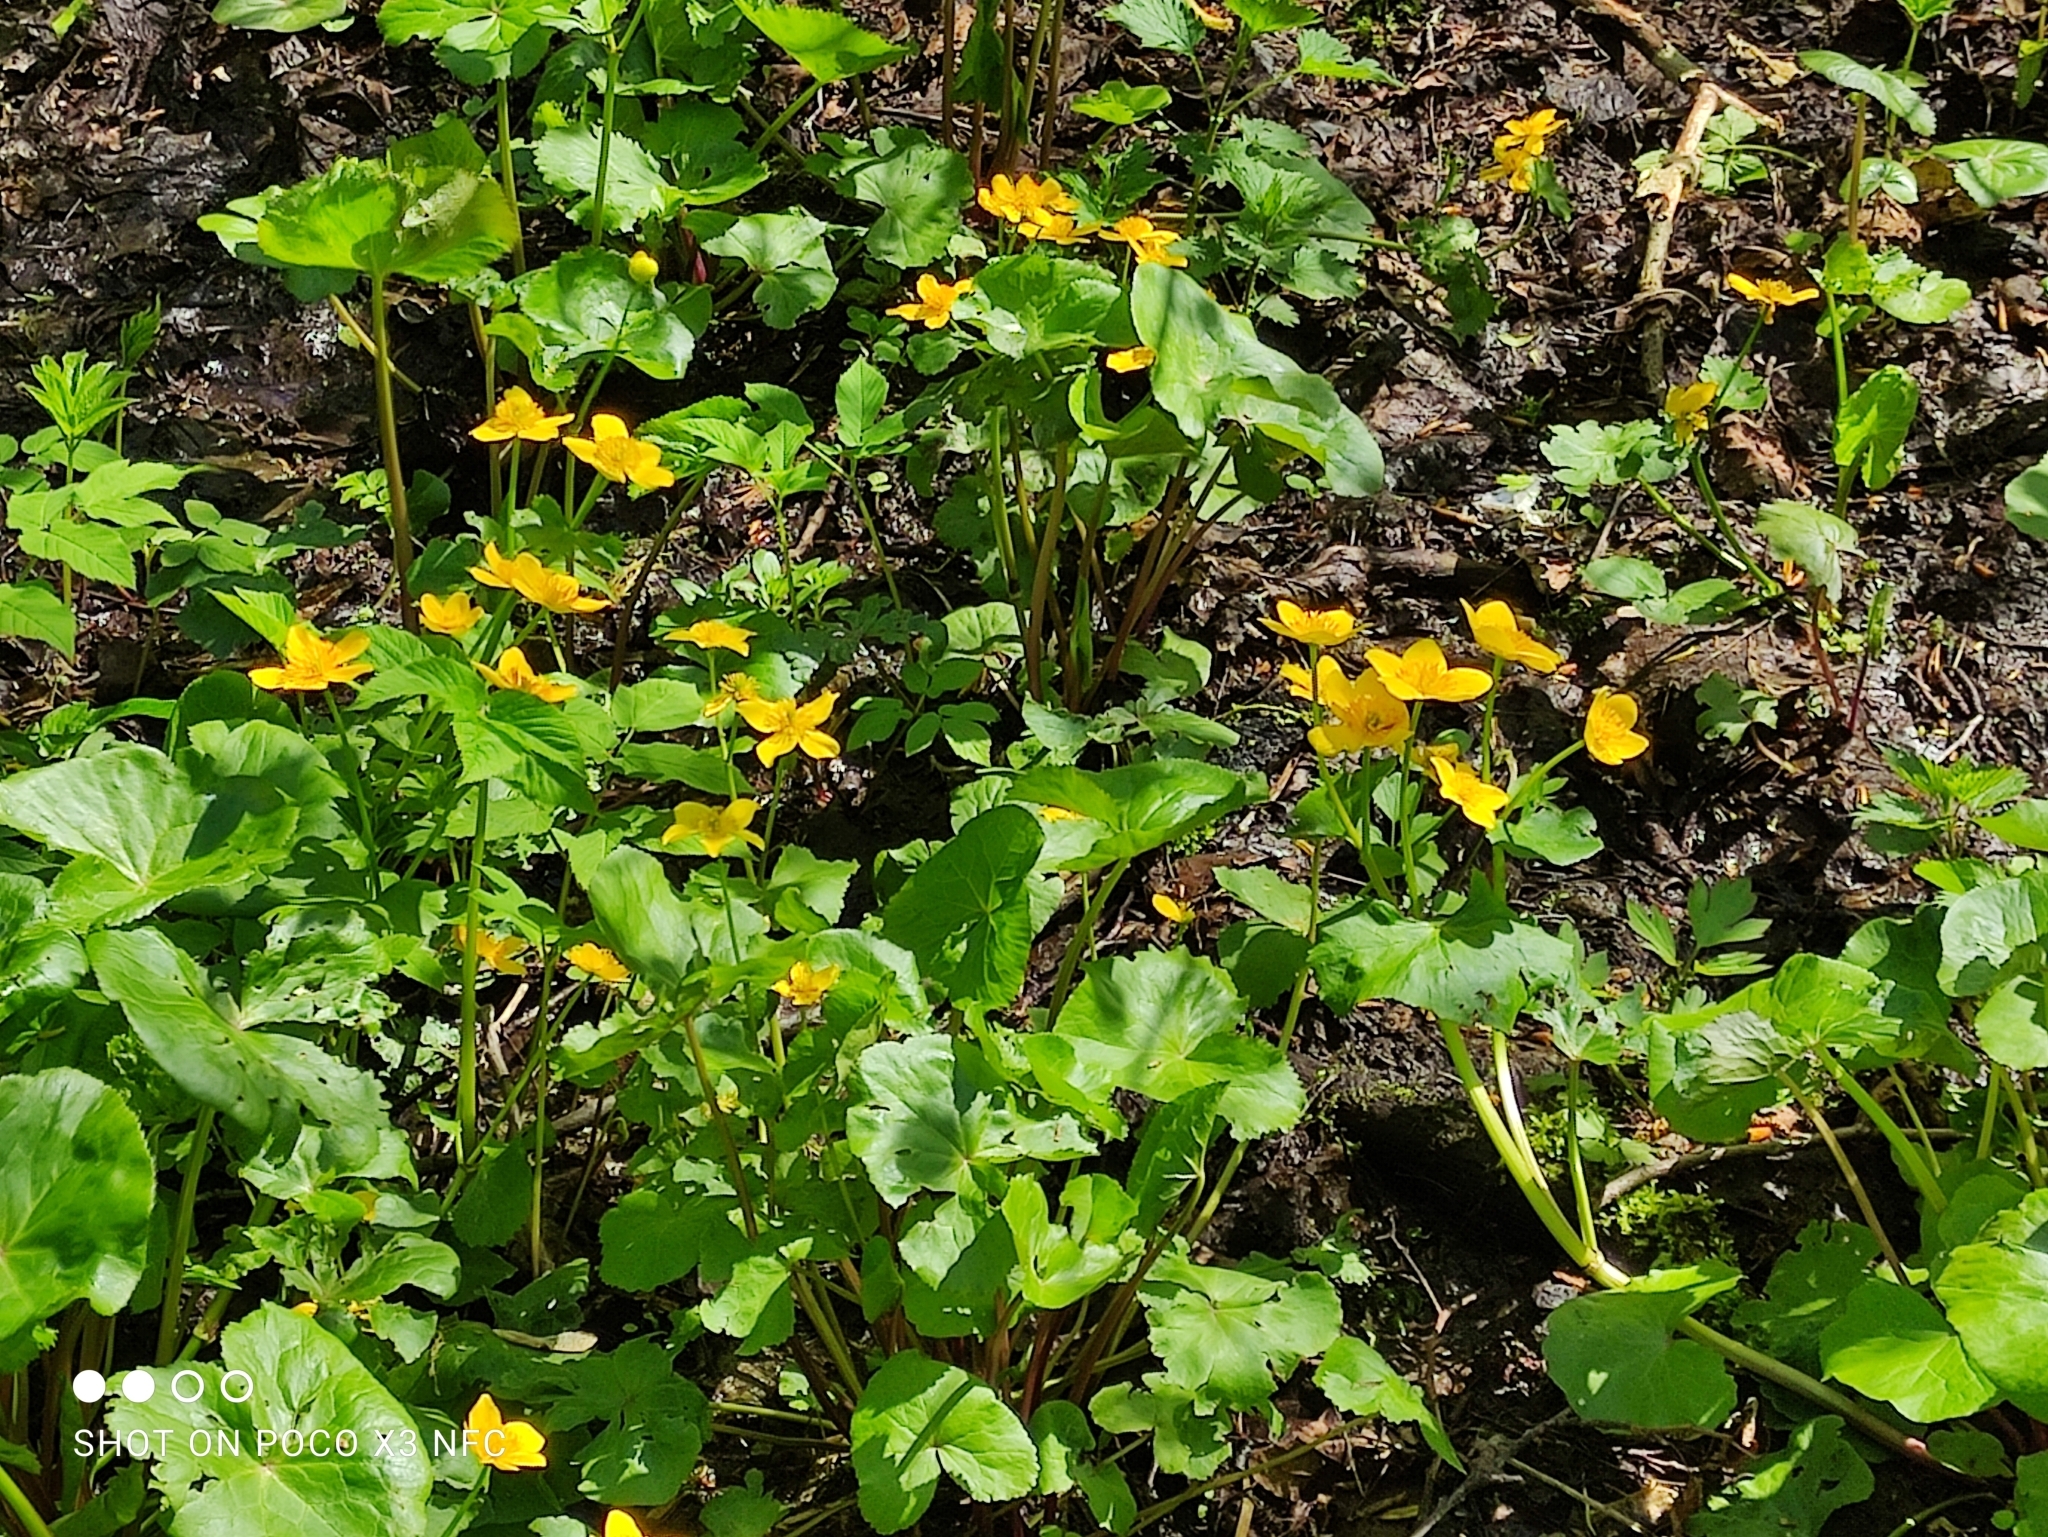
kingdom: Plantae
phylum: Tracheophyta
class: Magnoliopsida
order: Ranunculales
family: Ranunculaceae
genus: Caltha
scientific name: Caltha palustris
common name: Marsh marigold
